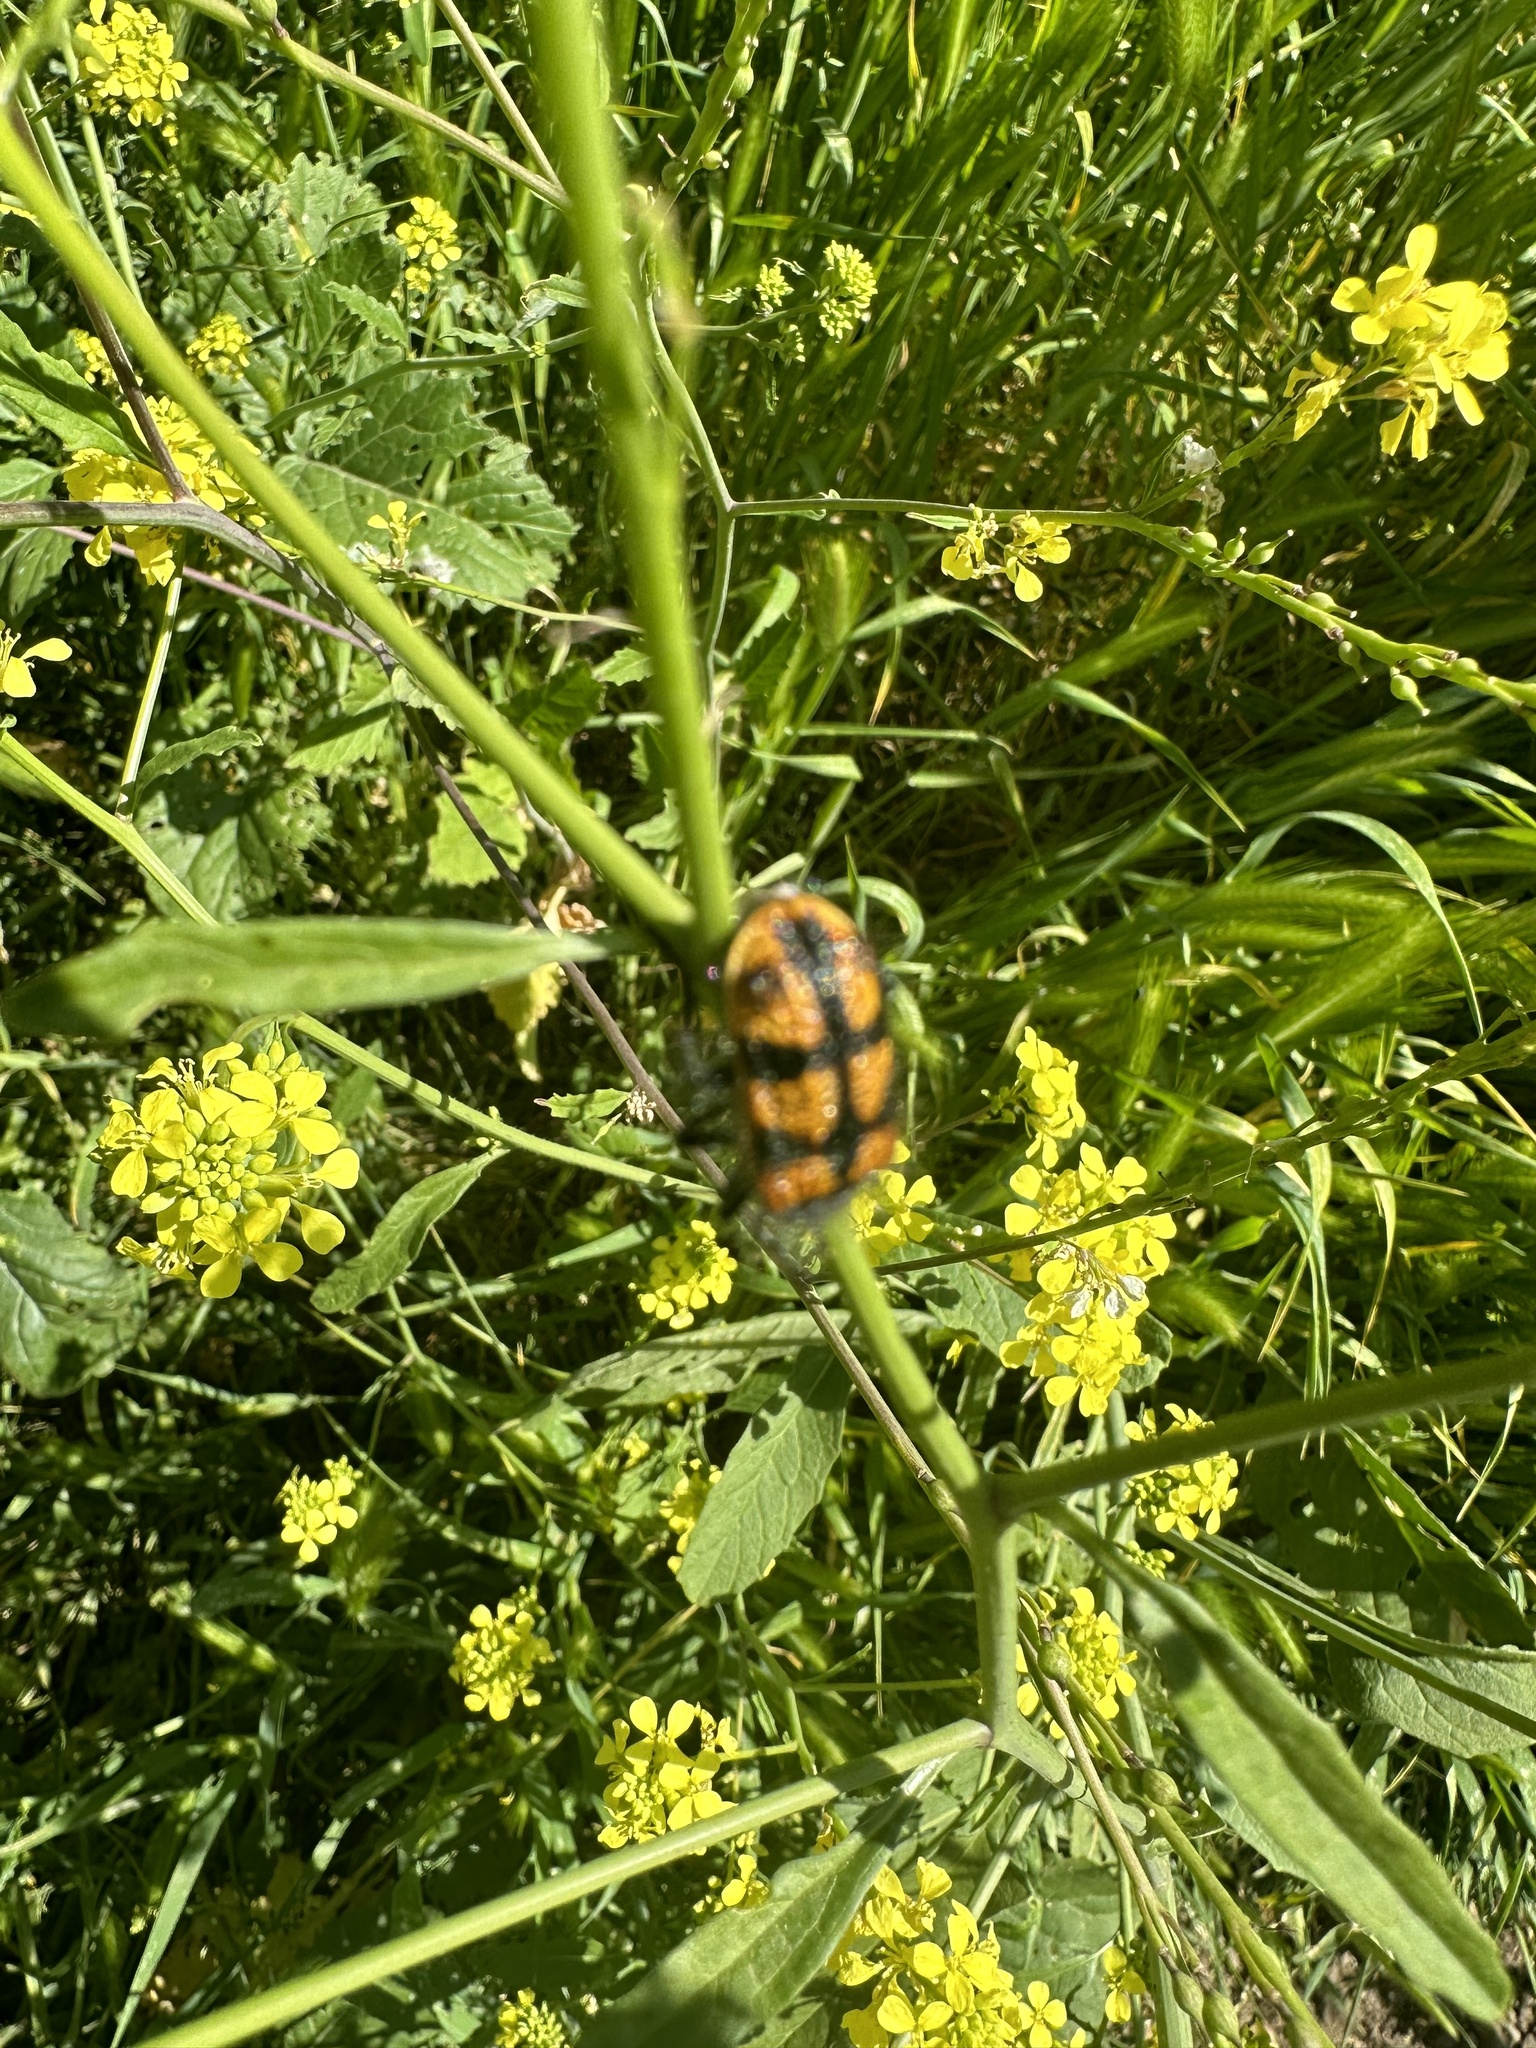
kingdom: Animalia
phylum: Arthropoda
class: Insecta
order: Coleoptera
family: Melyridae
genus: Astylus
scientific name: Astylus
